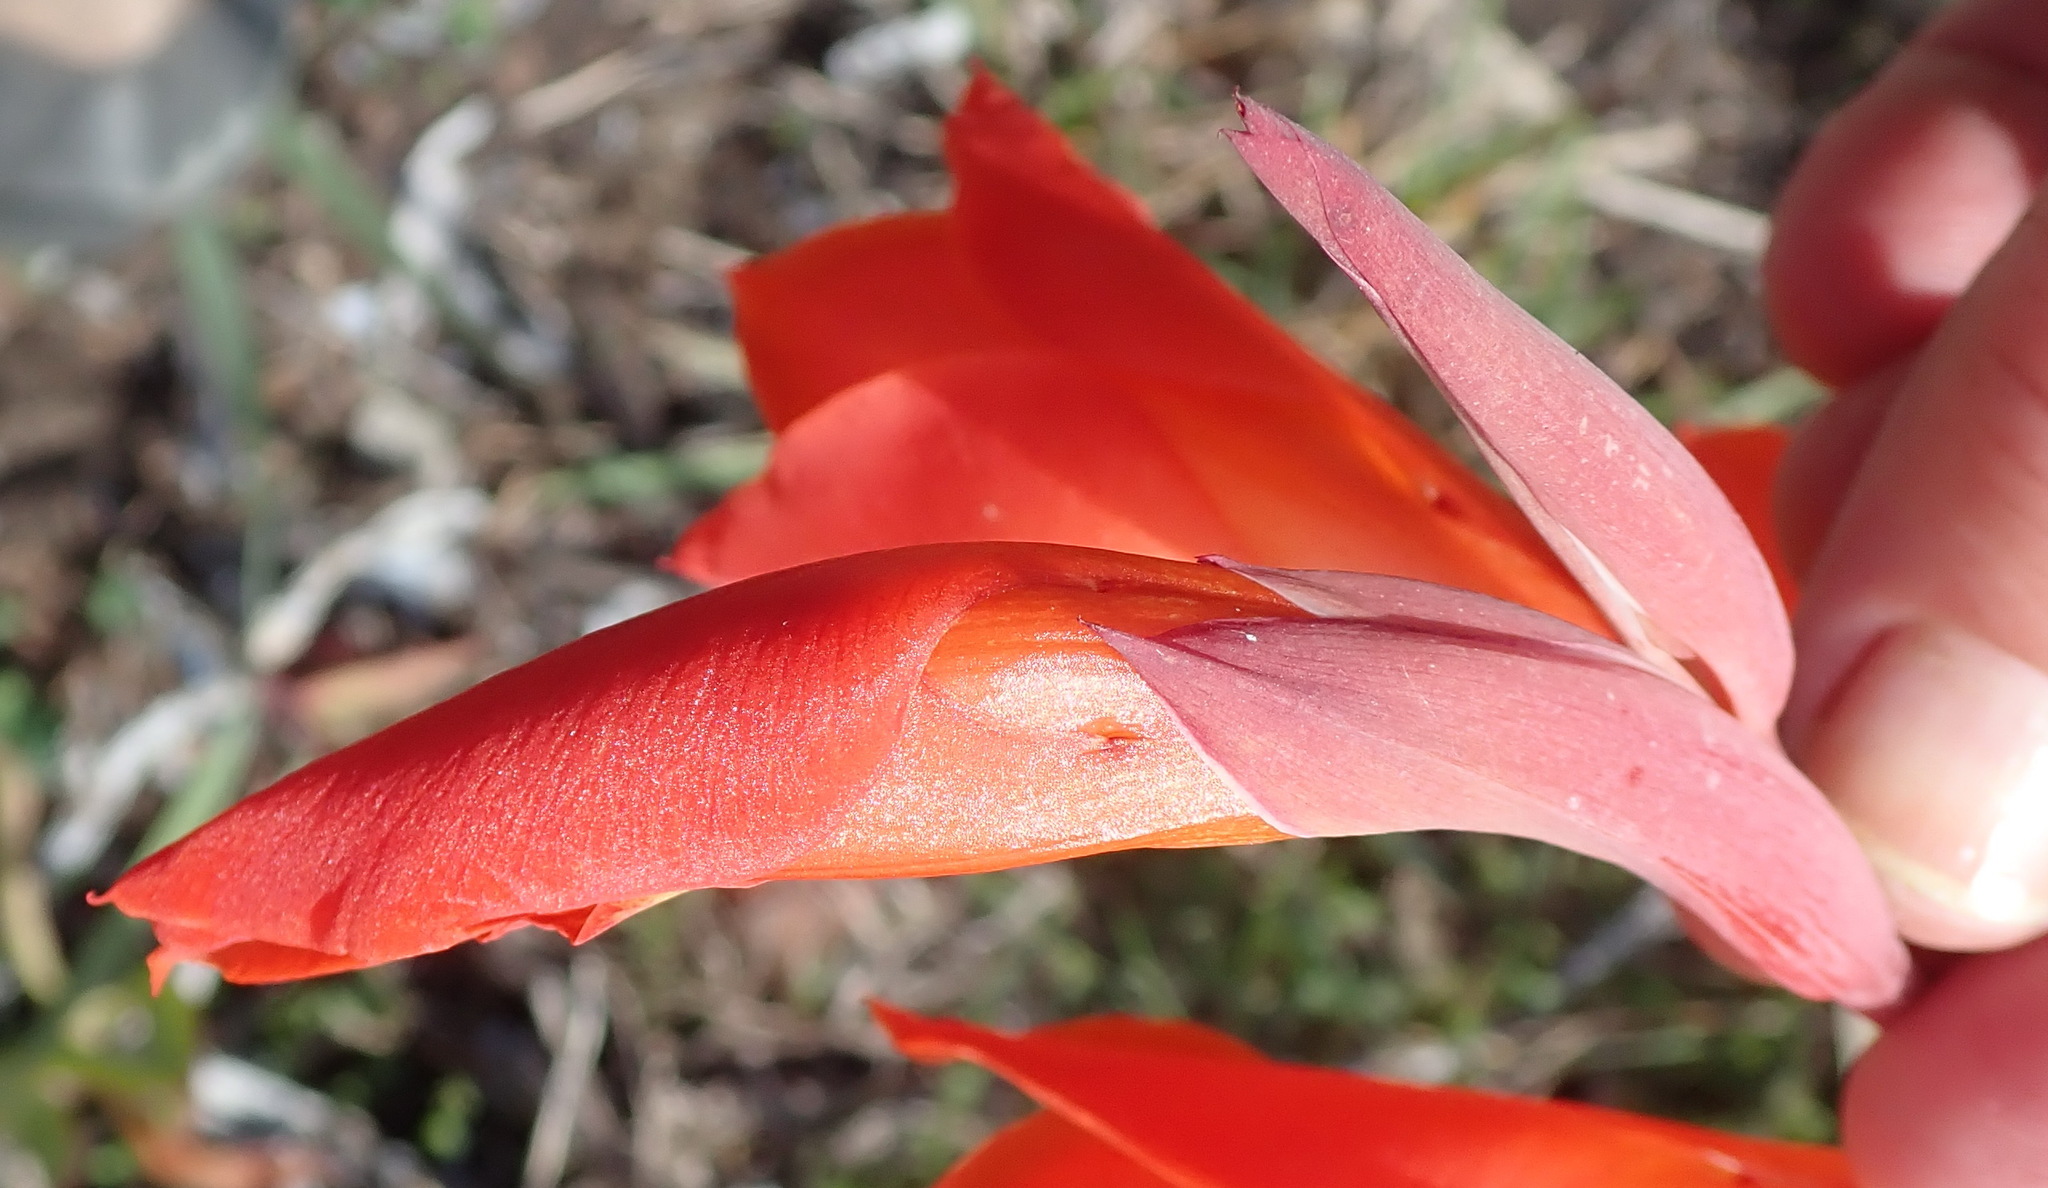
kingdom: Plantae
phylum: Tracheophyta
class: Liliopsida
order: Asparagales
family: Iridaceae
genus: Gladiolus
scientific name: Gladiolus dalenii
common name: Cornflag
